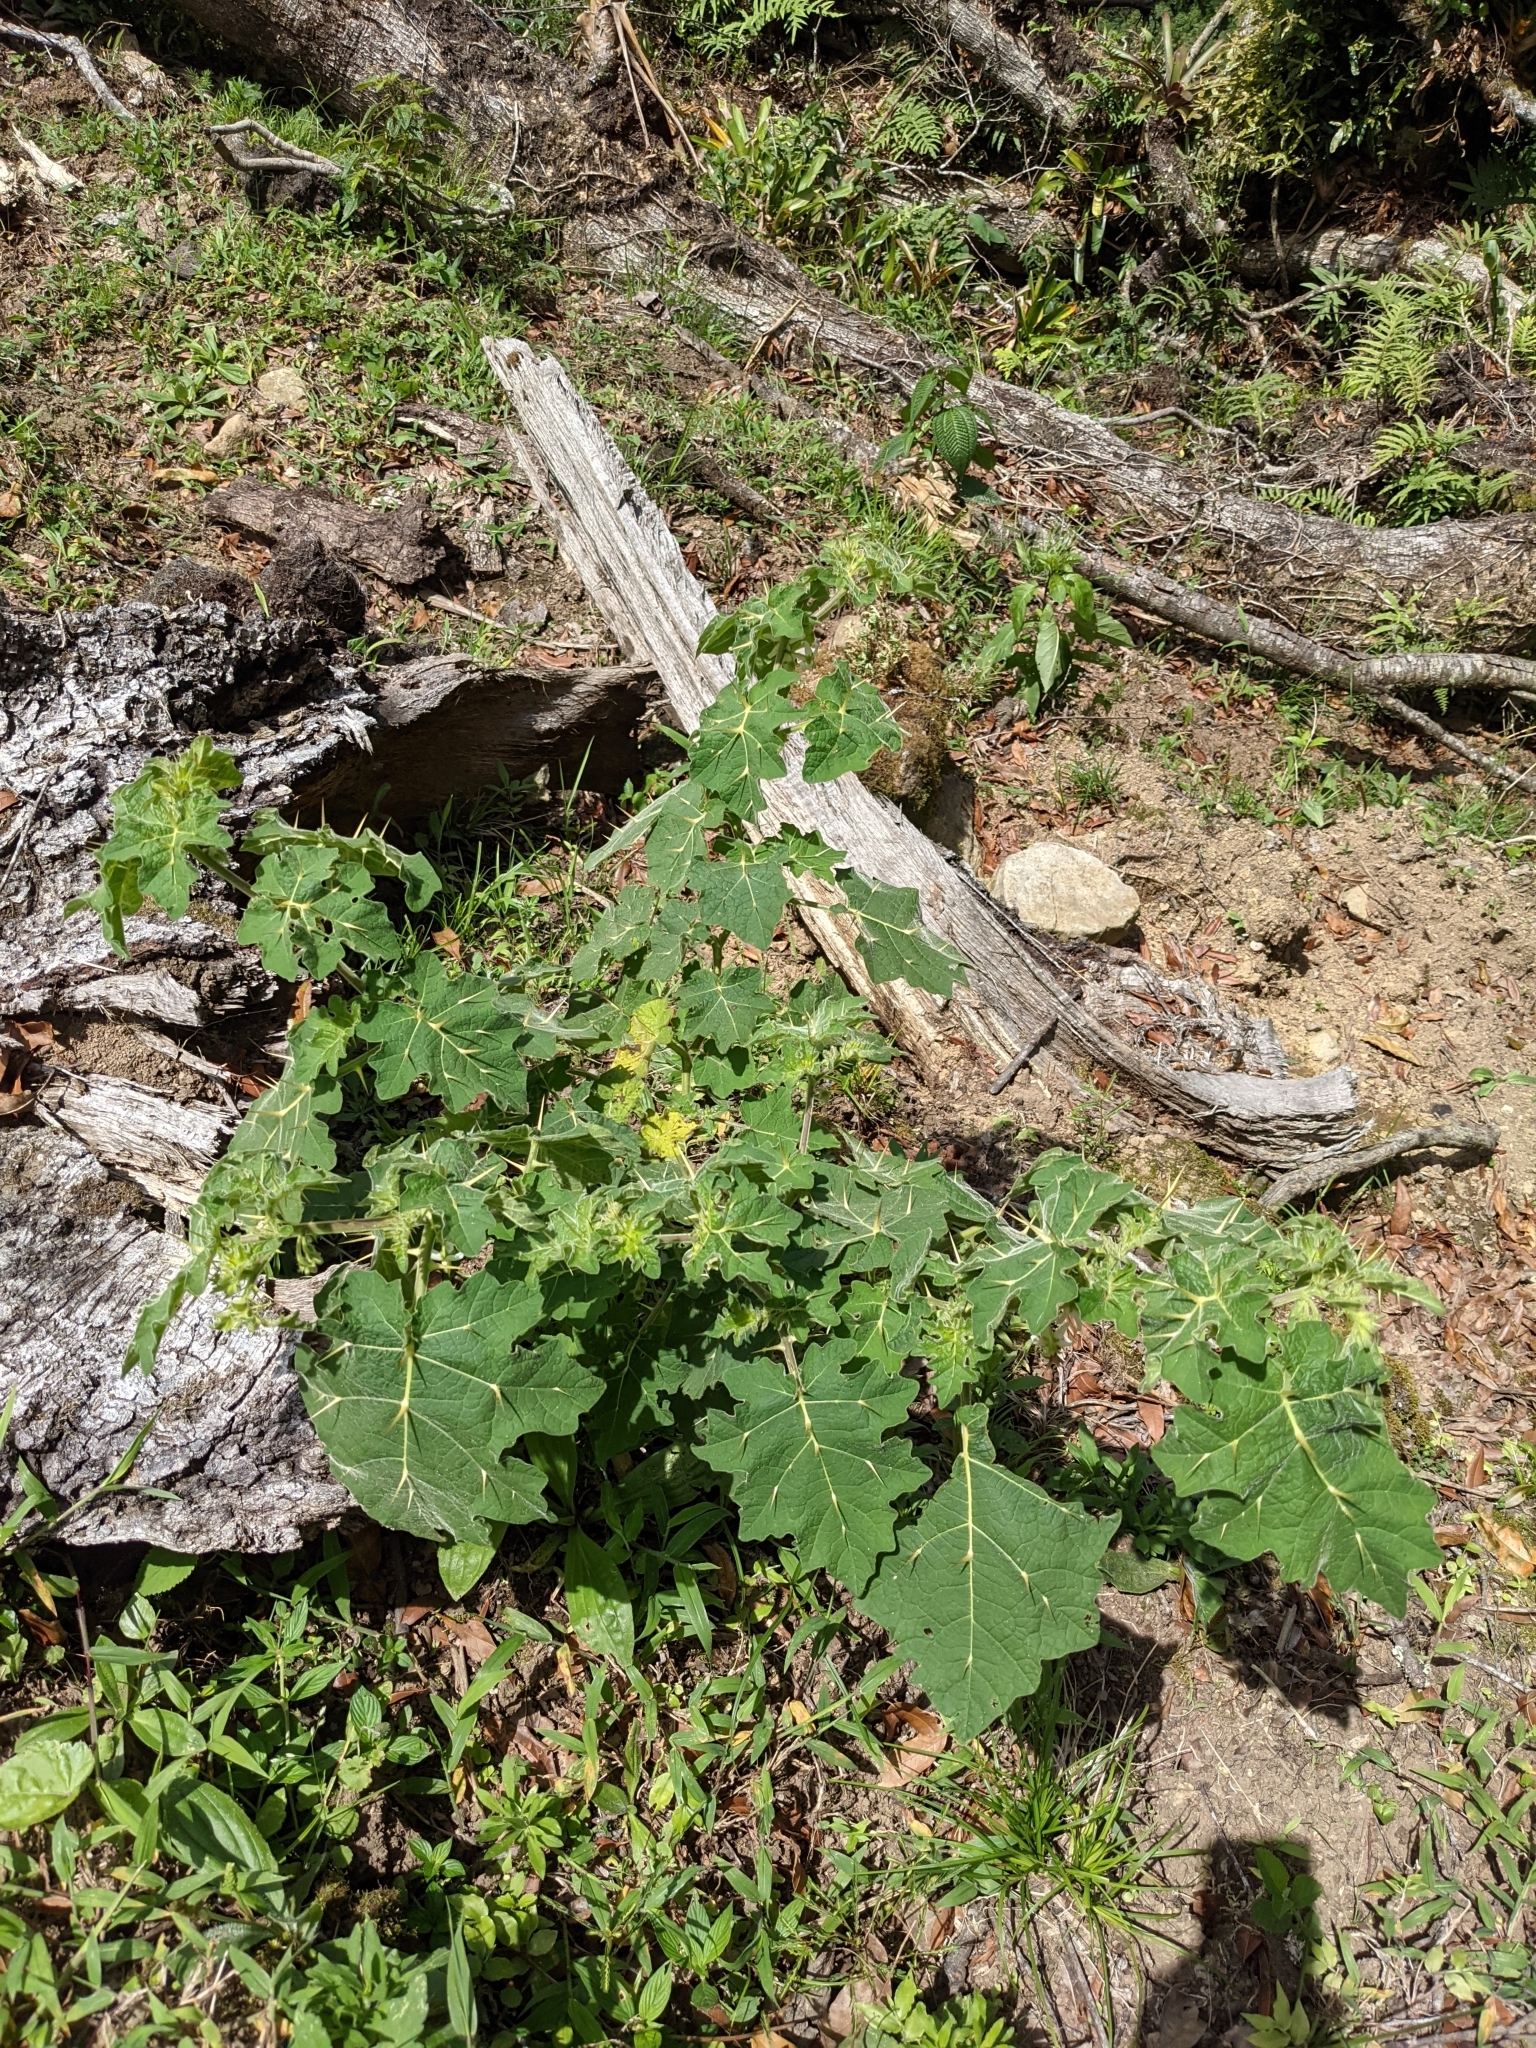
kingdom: Plantae
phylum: Tracheophyta
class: Magnoliopsida
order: Solanales
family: Solanaceae
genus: Solanum
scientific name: Solanum viarum
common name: Tropical soda apple
